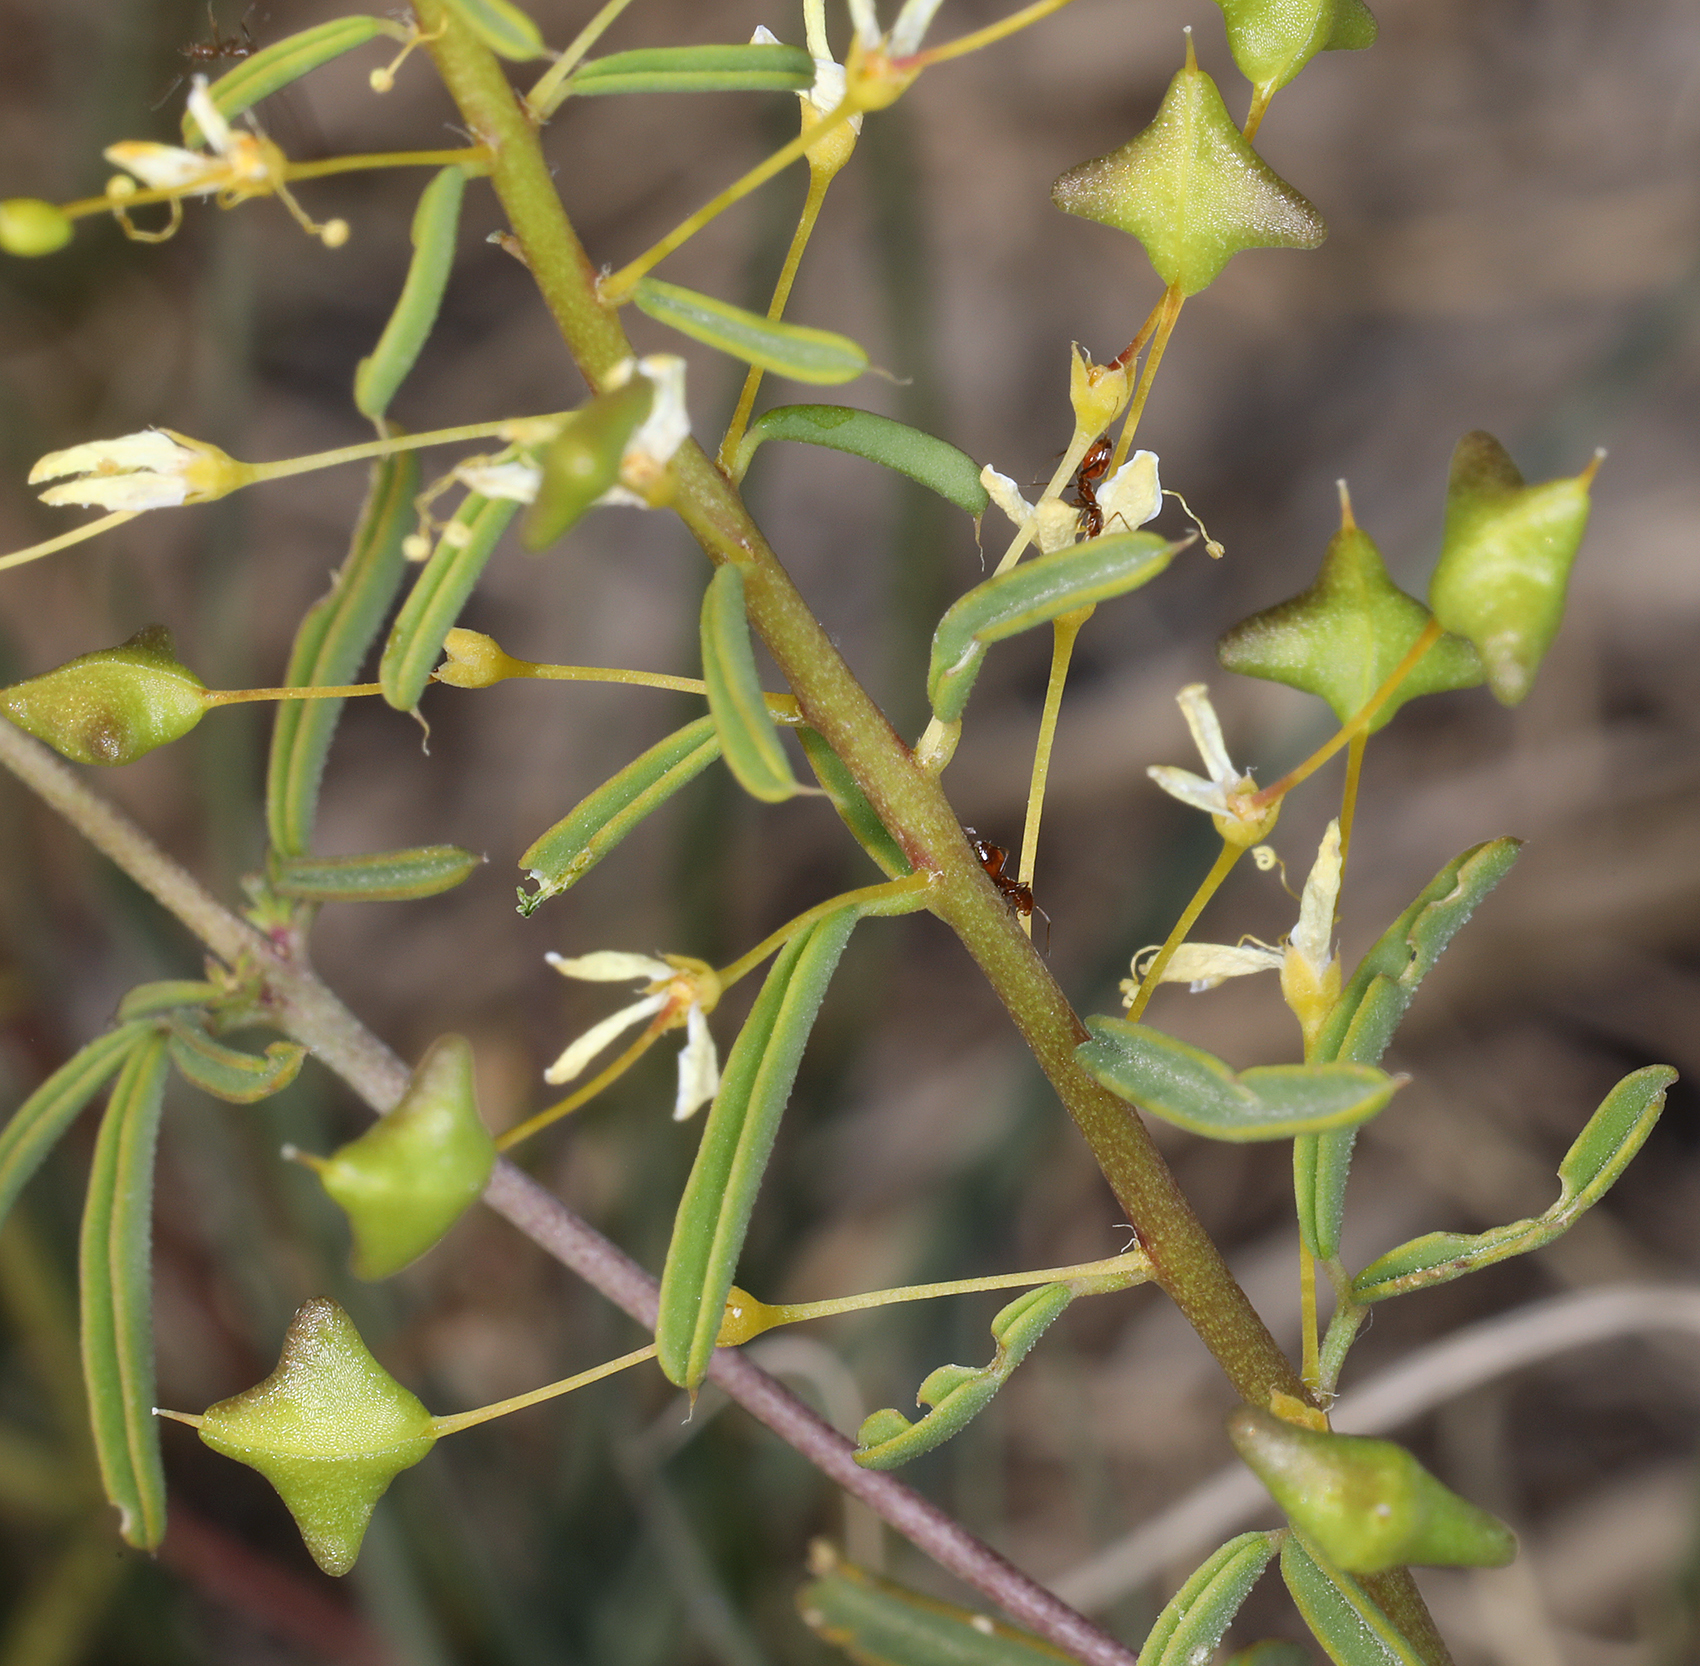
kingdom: Plantae
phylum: Tracheophyta
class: Magnoliopsida
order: Brassicales
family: Cleomaceae
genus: Cleomella
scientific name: Cleomella plocasperma
